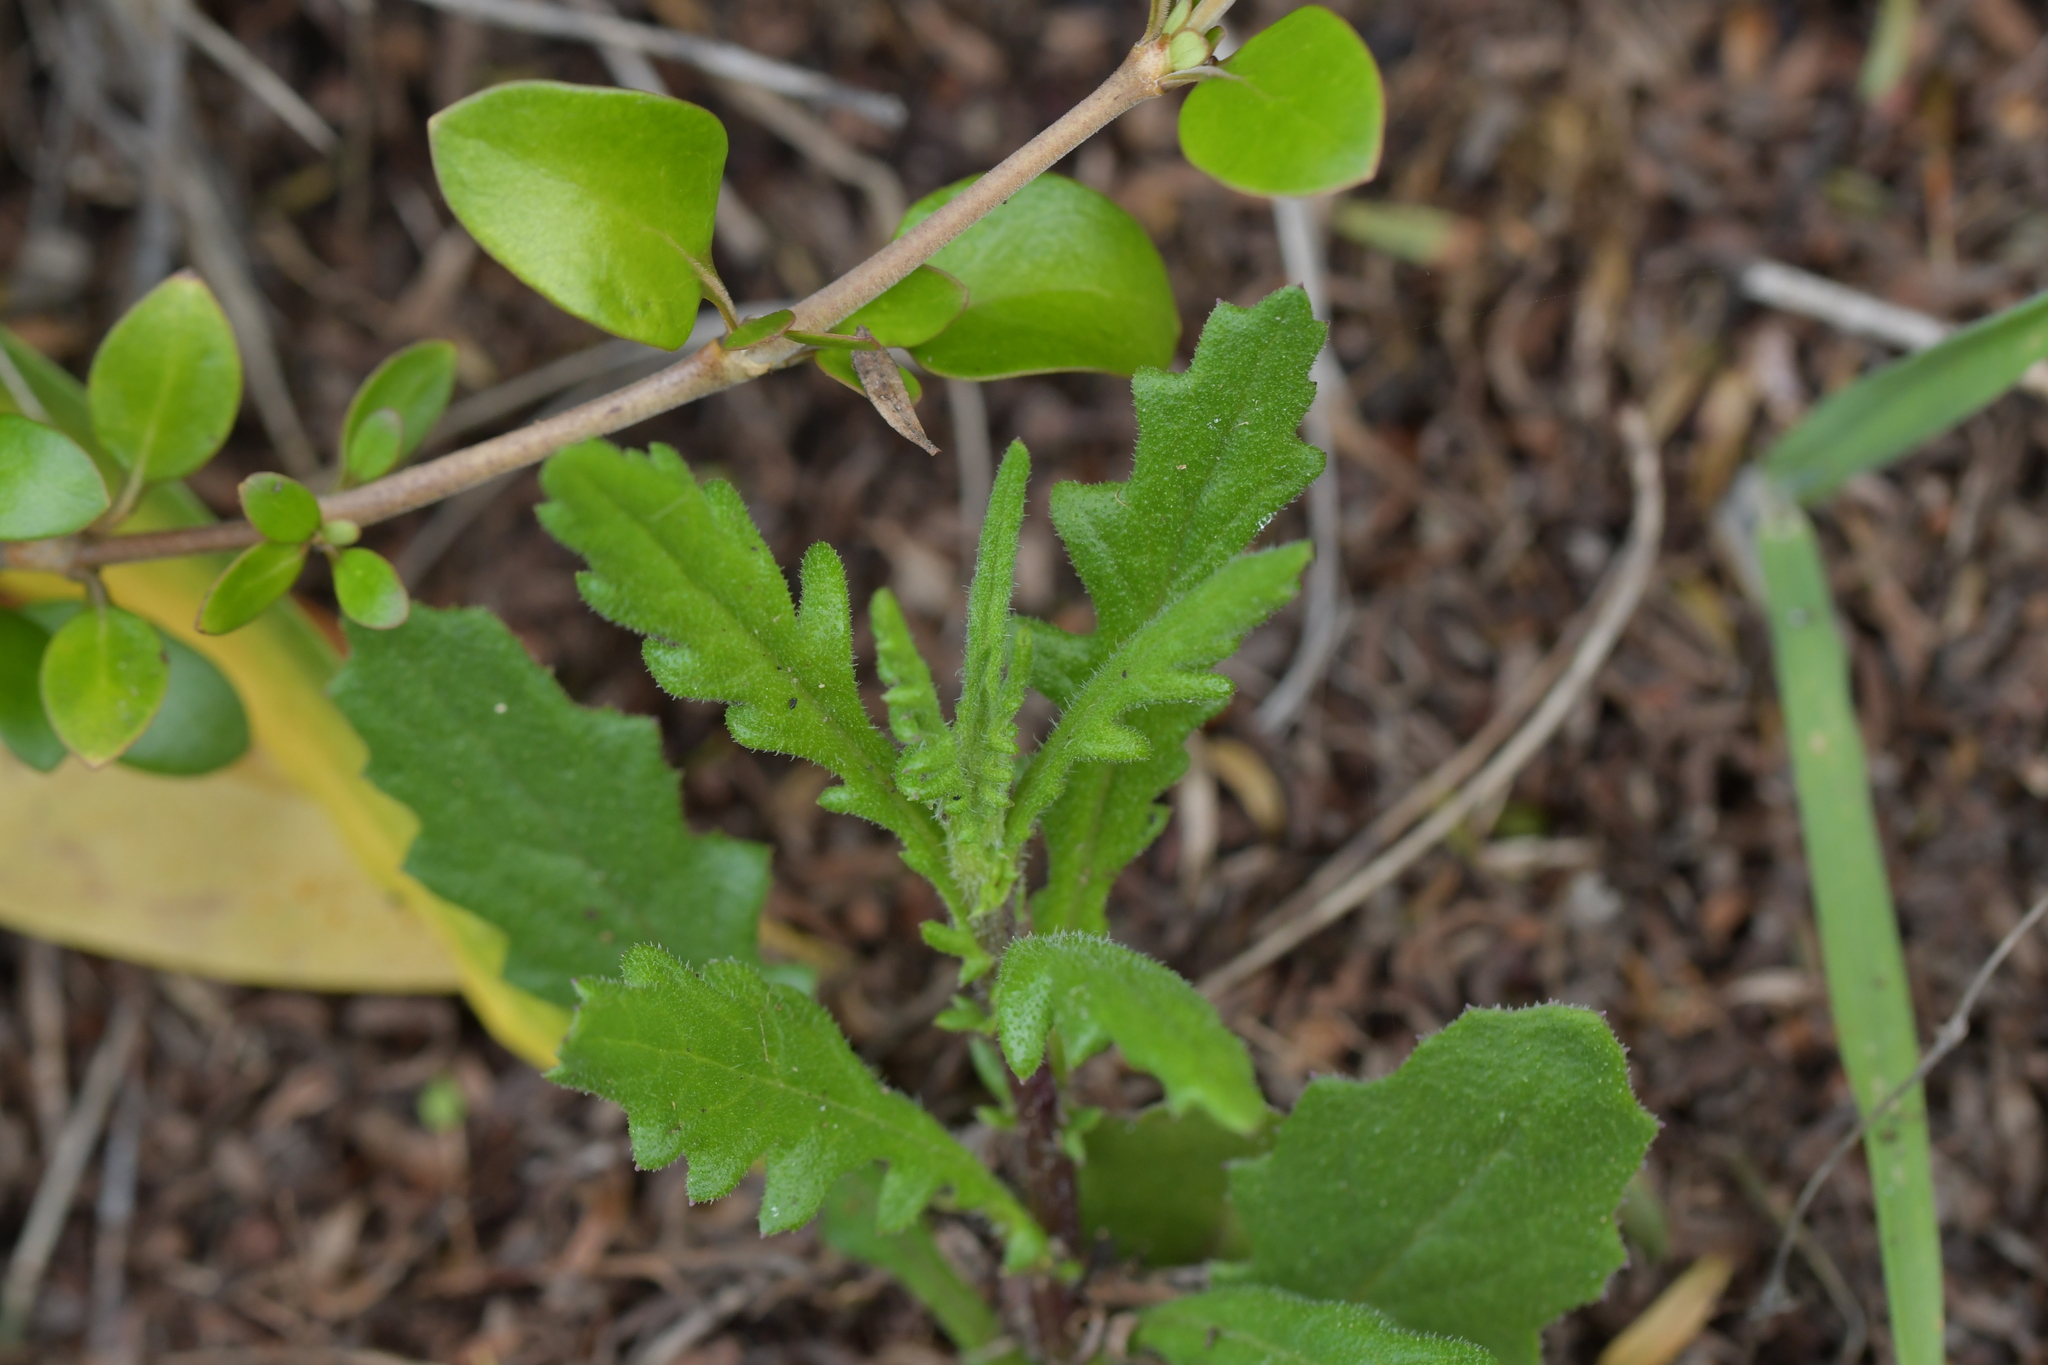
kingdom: Plantae
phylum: Tracheophyta
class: Magnoliopsida
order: Asterales
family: Asteraceae
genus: Senecio
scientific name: Senecio glomeratus
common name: Cutleaf burnweed
